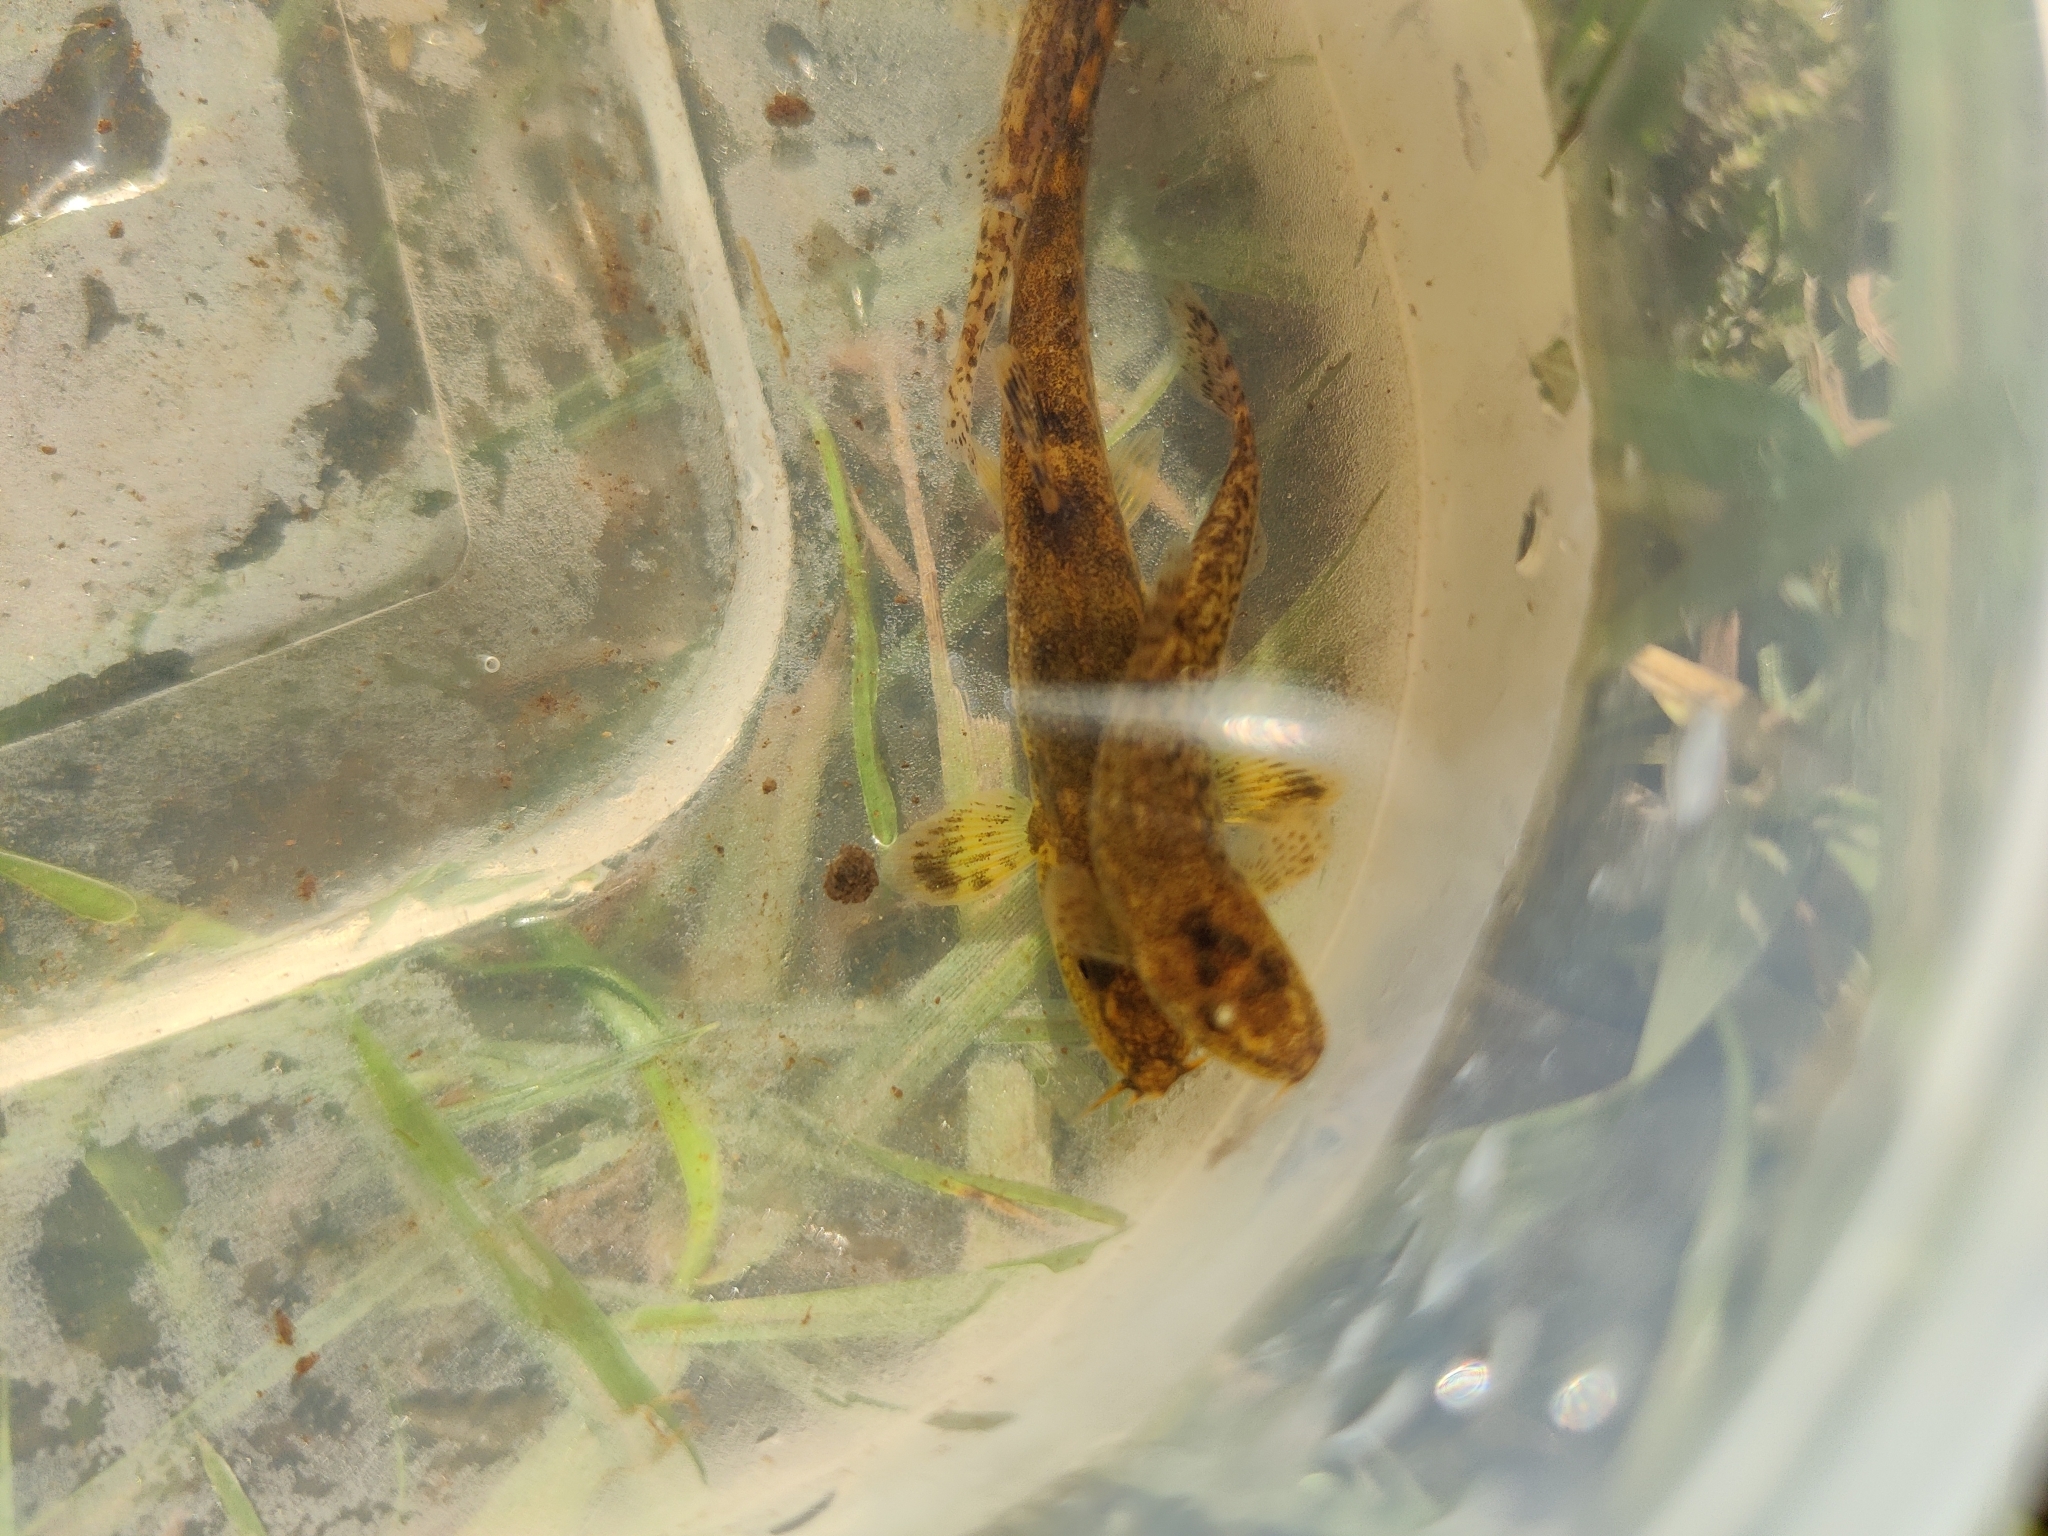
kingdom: Animalia
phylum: Chordata
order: Cypriniformes
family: Nemacheilidae
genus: Barbatula
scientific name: Barbatula barbatula
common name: Stone loach
